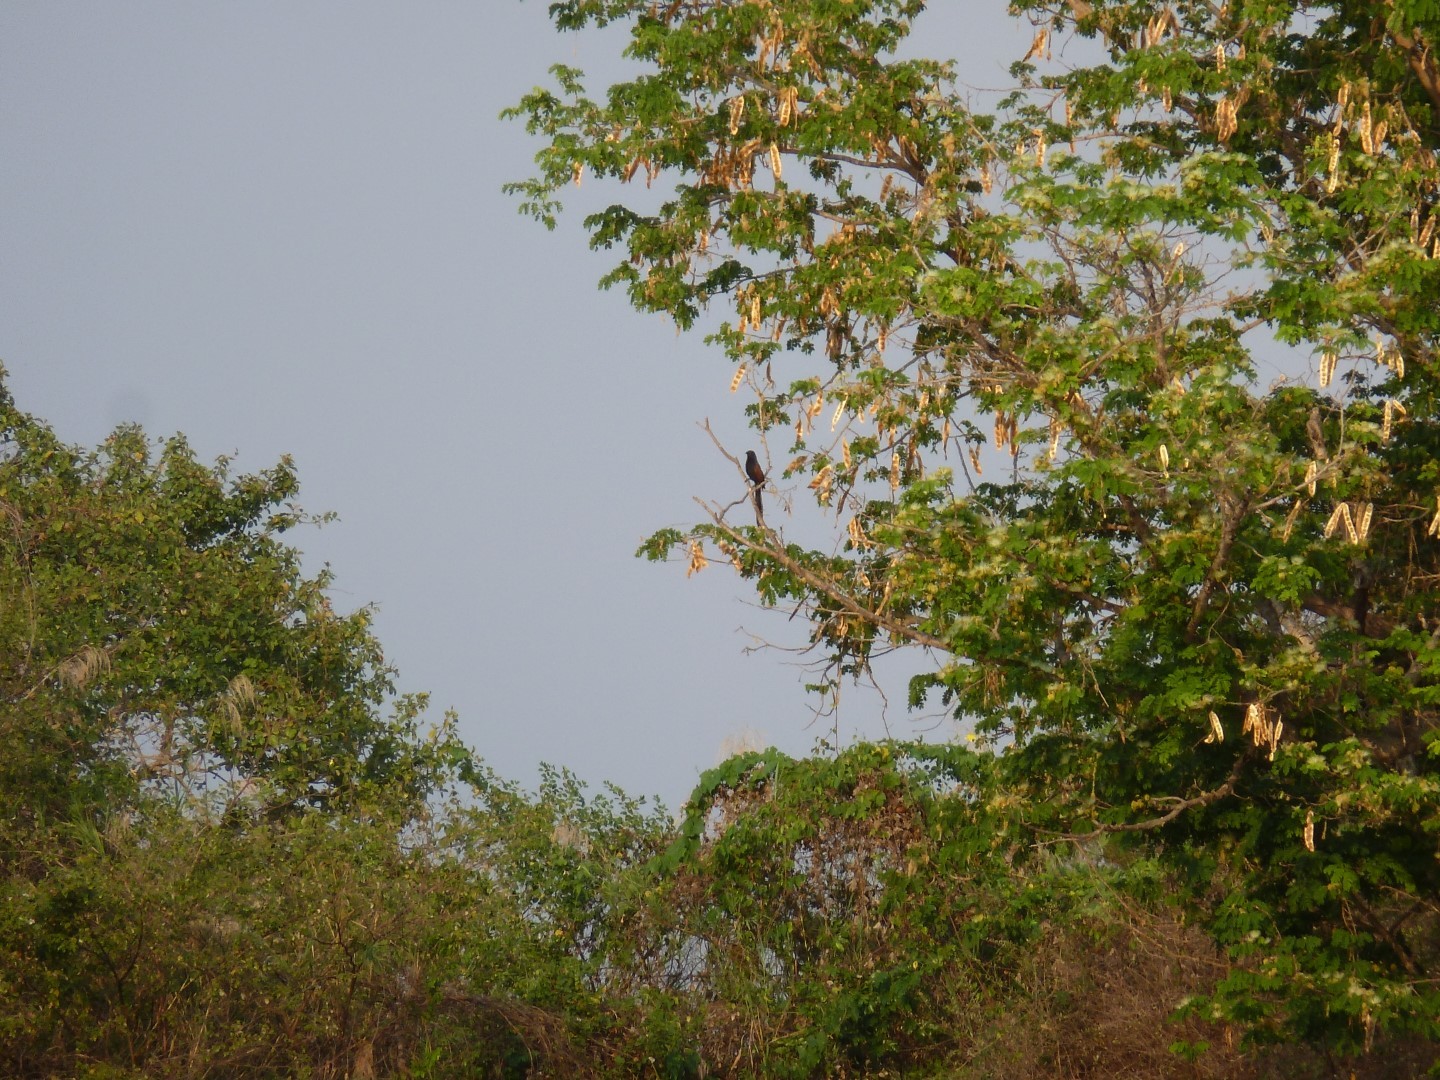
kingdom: Animalia
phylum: Chordata
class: Aves
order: Cuculiformes
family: Cuculidae
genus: Centropus
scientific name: Centropus toulou
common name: Malagasy coucal
